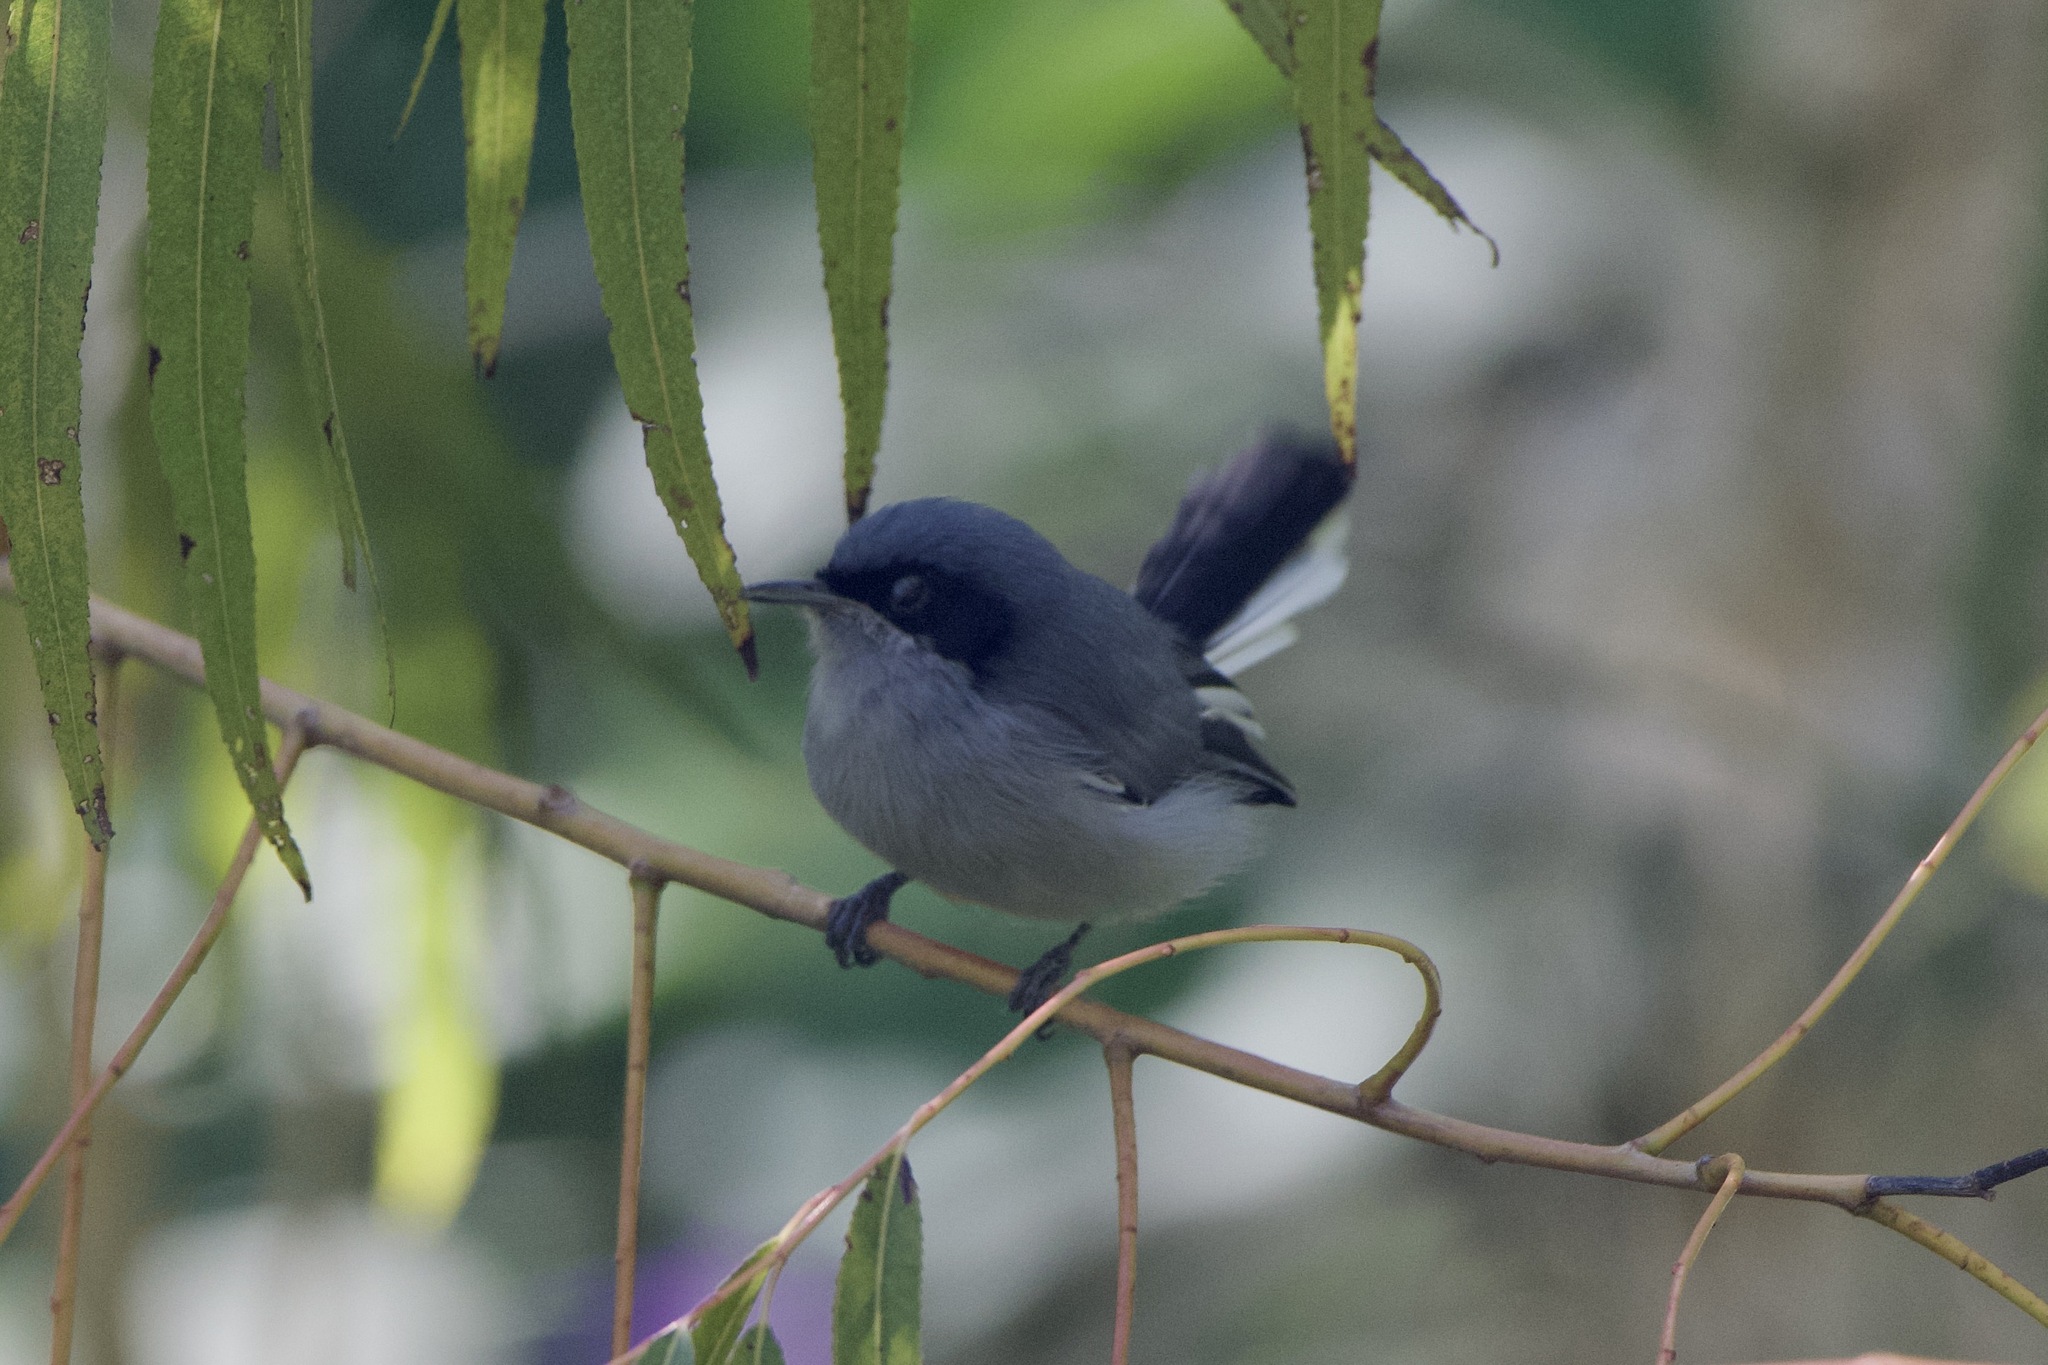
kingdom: Animalia
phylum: Chordata
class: Aves
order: Passeriformes
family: Polioptilidae
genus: Polioptila
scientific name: Polioptila dumicola
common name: Masked gnatcatcher
